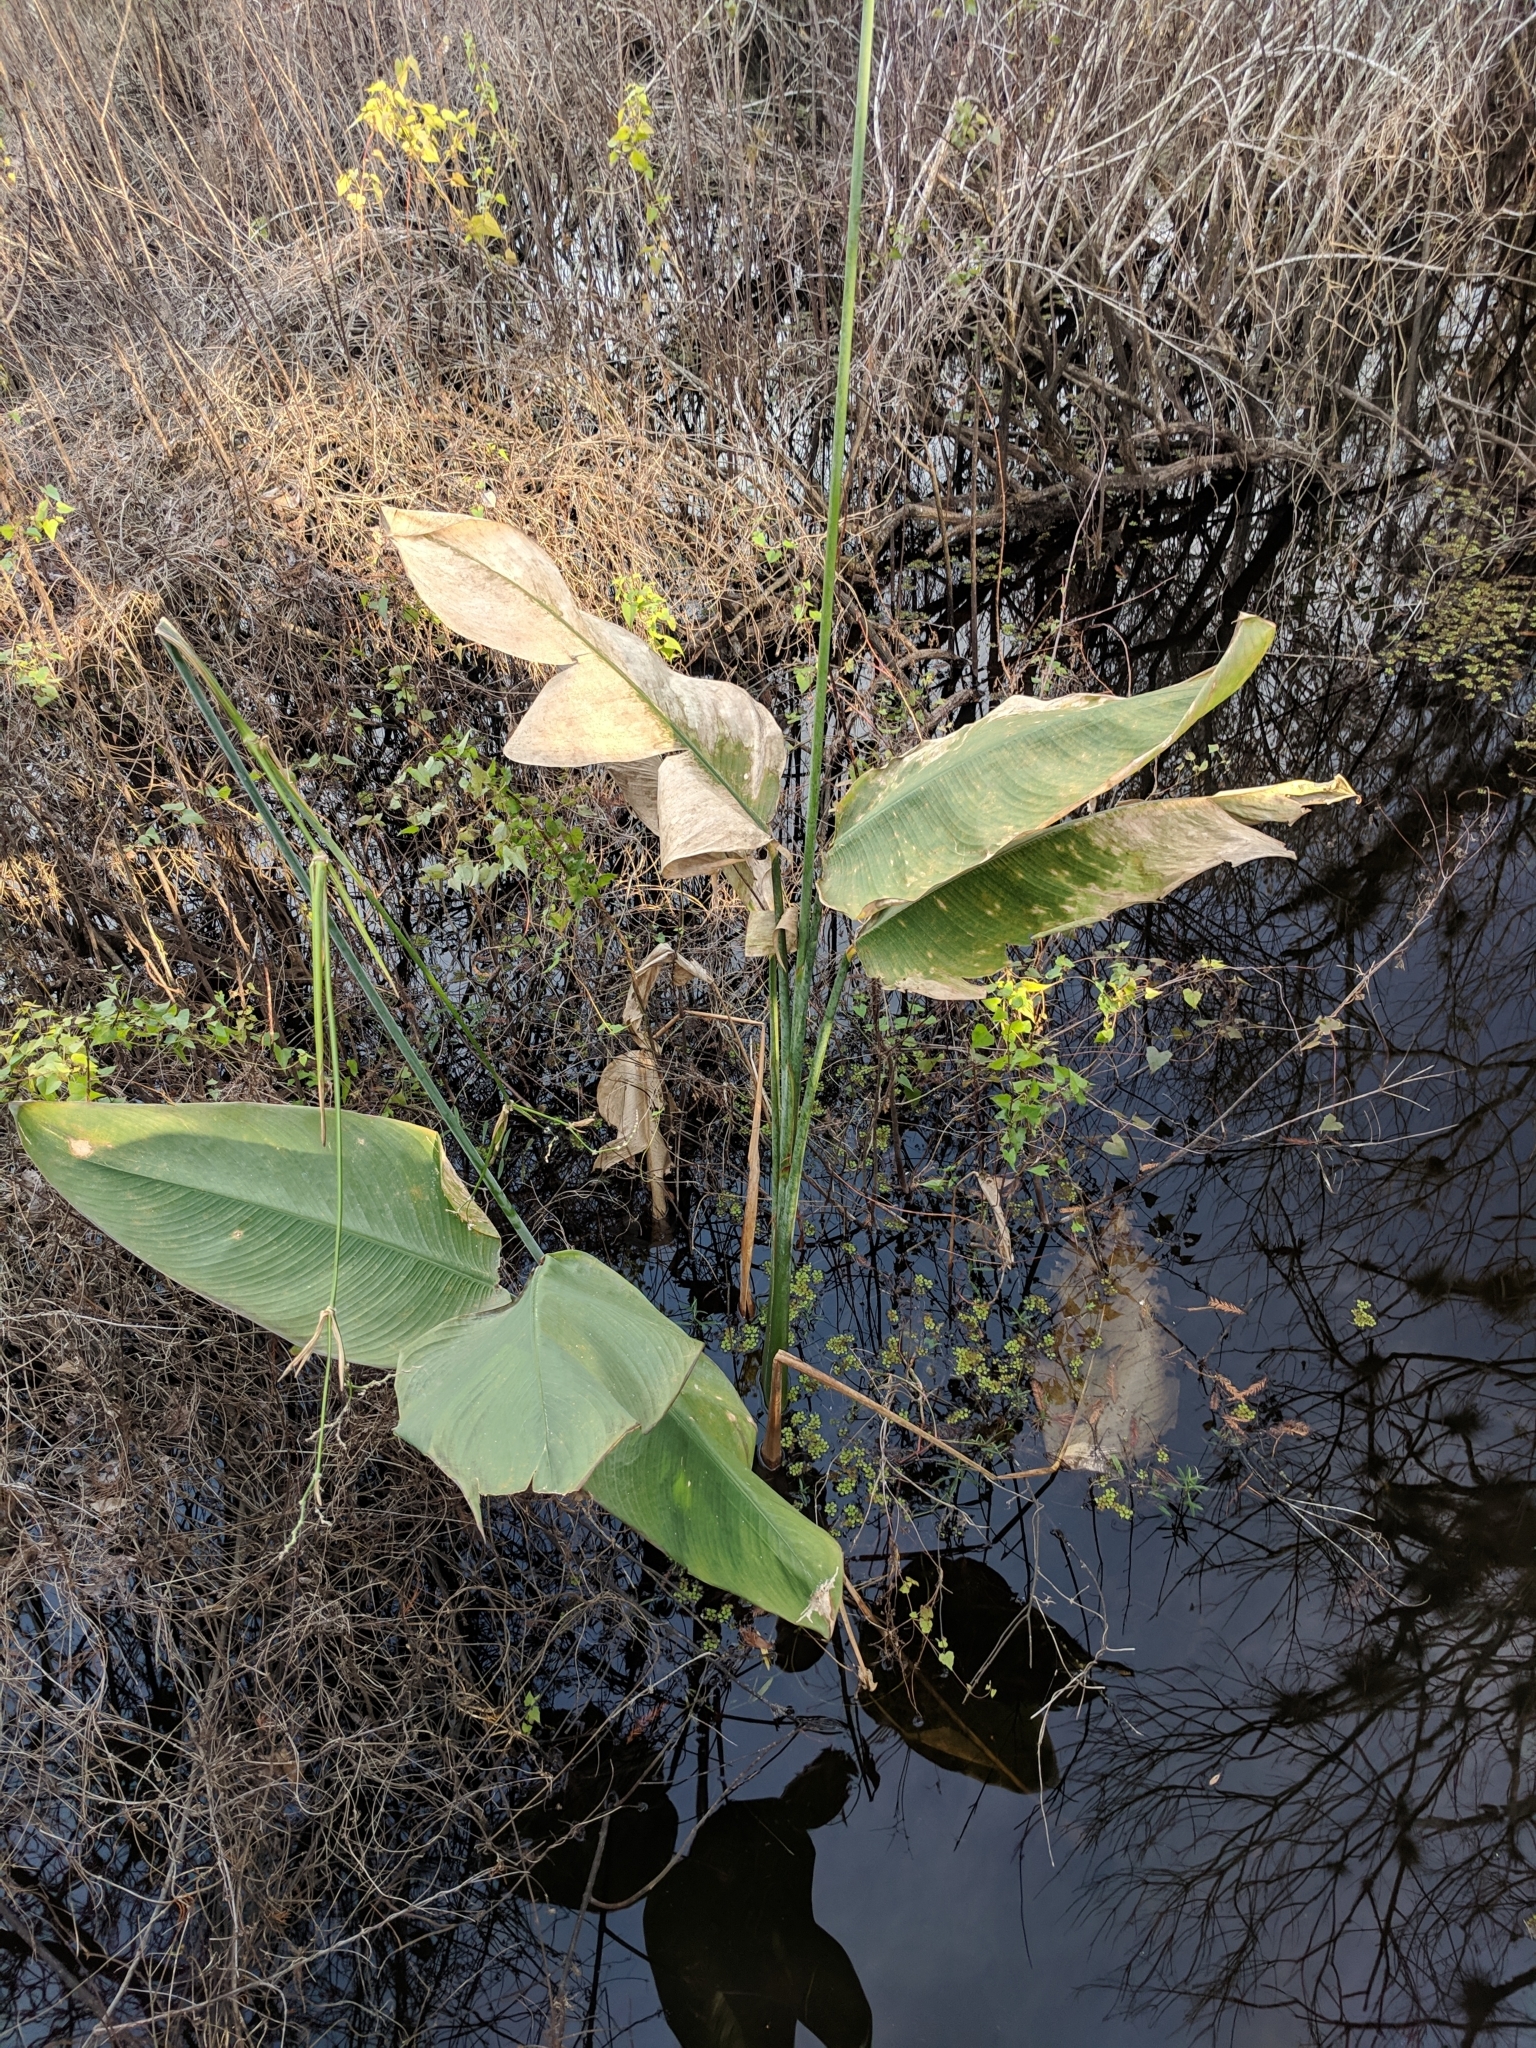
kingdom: Plantae
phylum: Tracheophyta
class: Liliopsida
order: Zingiberales
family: Marantaceae
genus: Thalia
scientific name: Thalia geniculata
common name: Arrowroot
